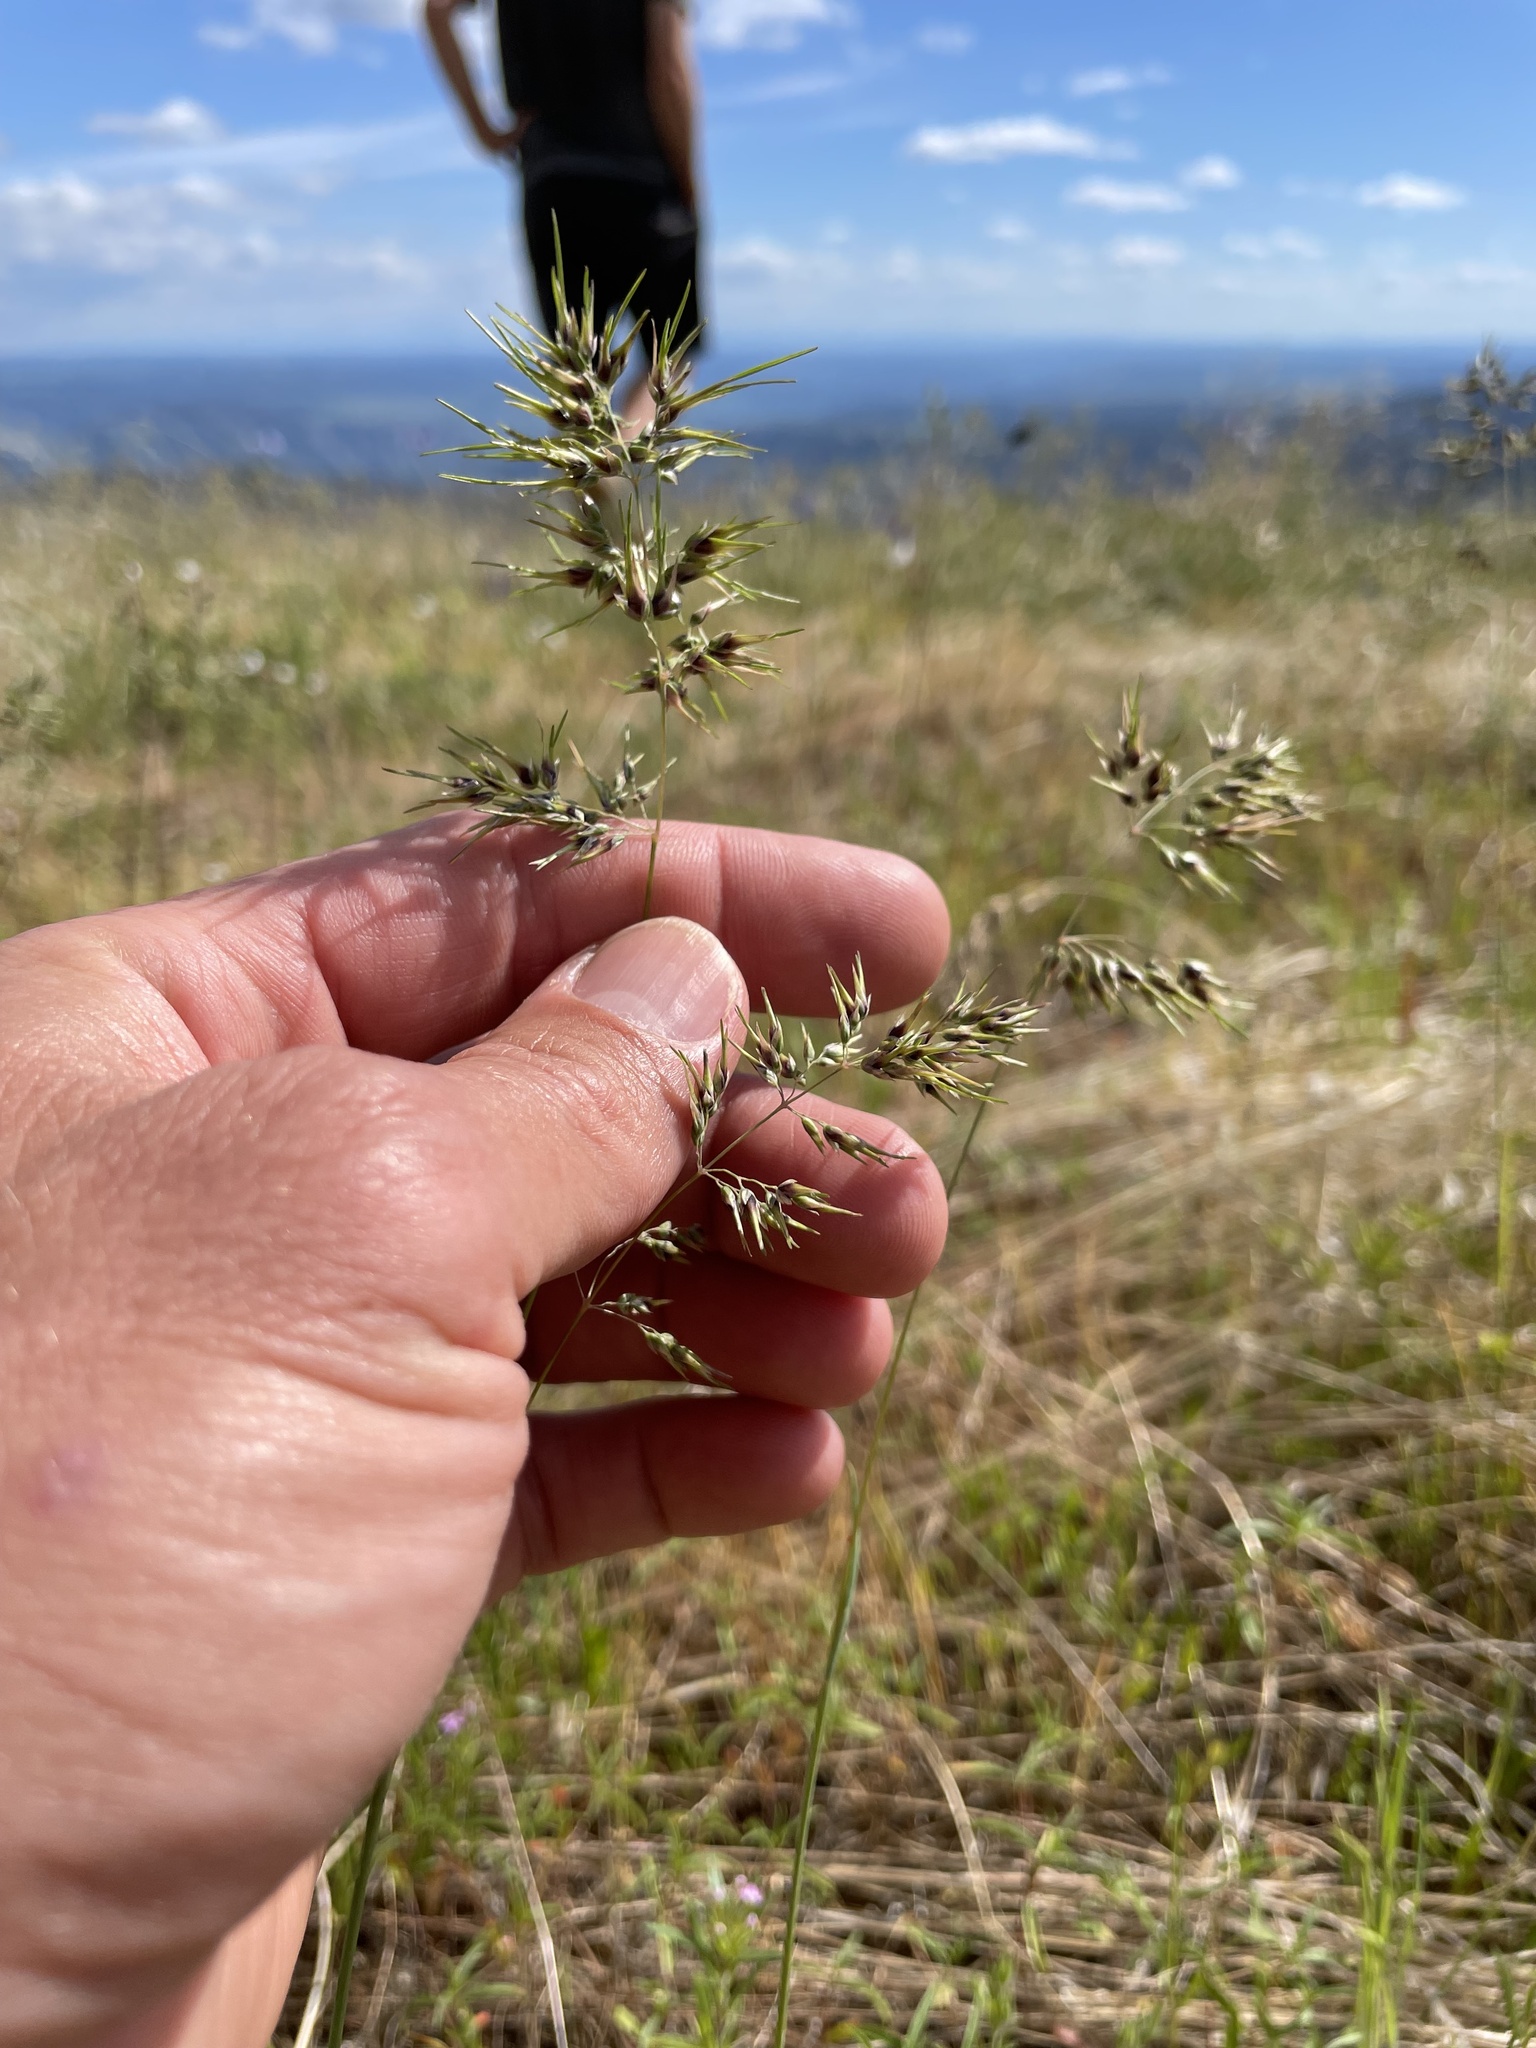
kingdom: Plantae
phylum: Tracheophyta
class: Liliopsida
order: Poales
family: Poaceae
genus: Poa
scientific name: Poa bulbosa
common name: Bulbous bluegrass
